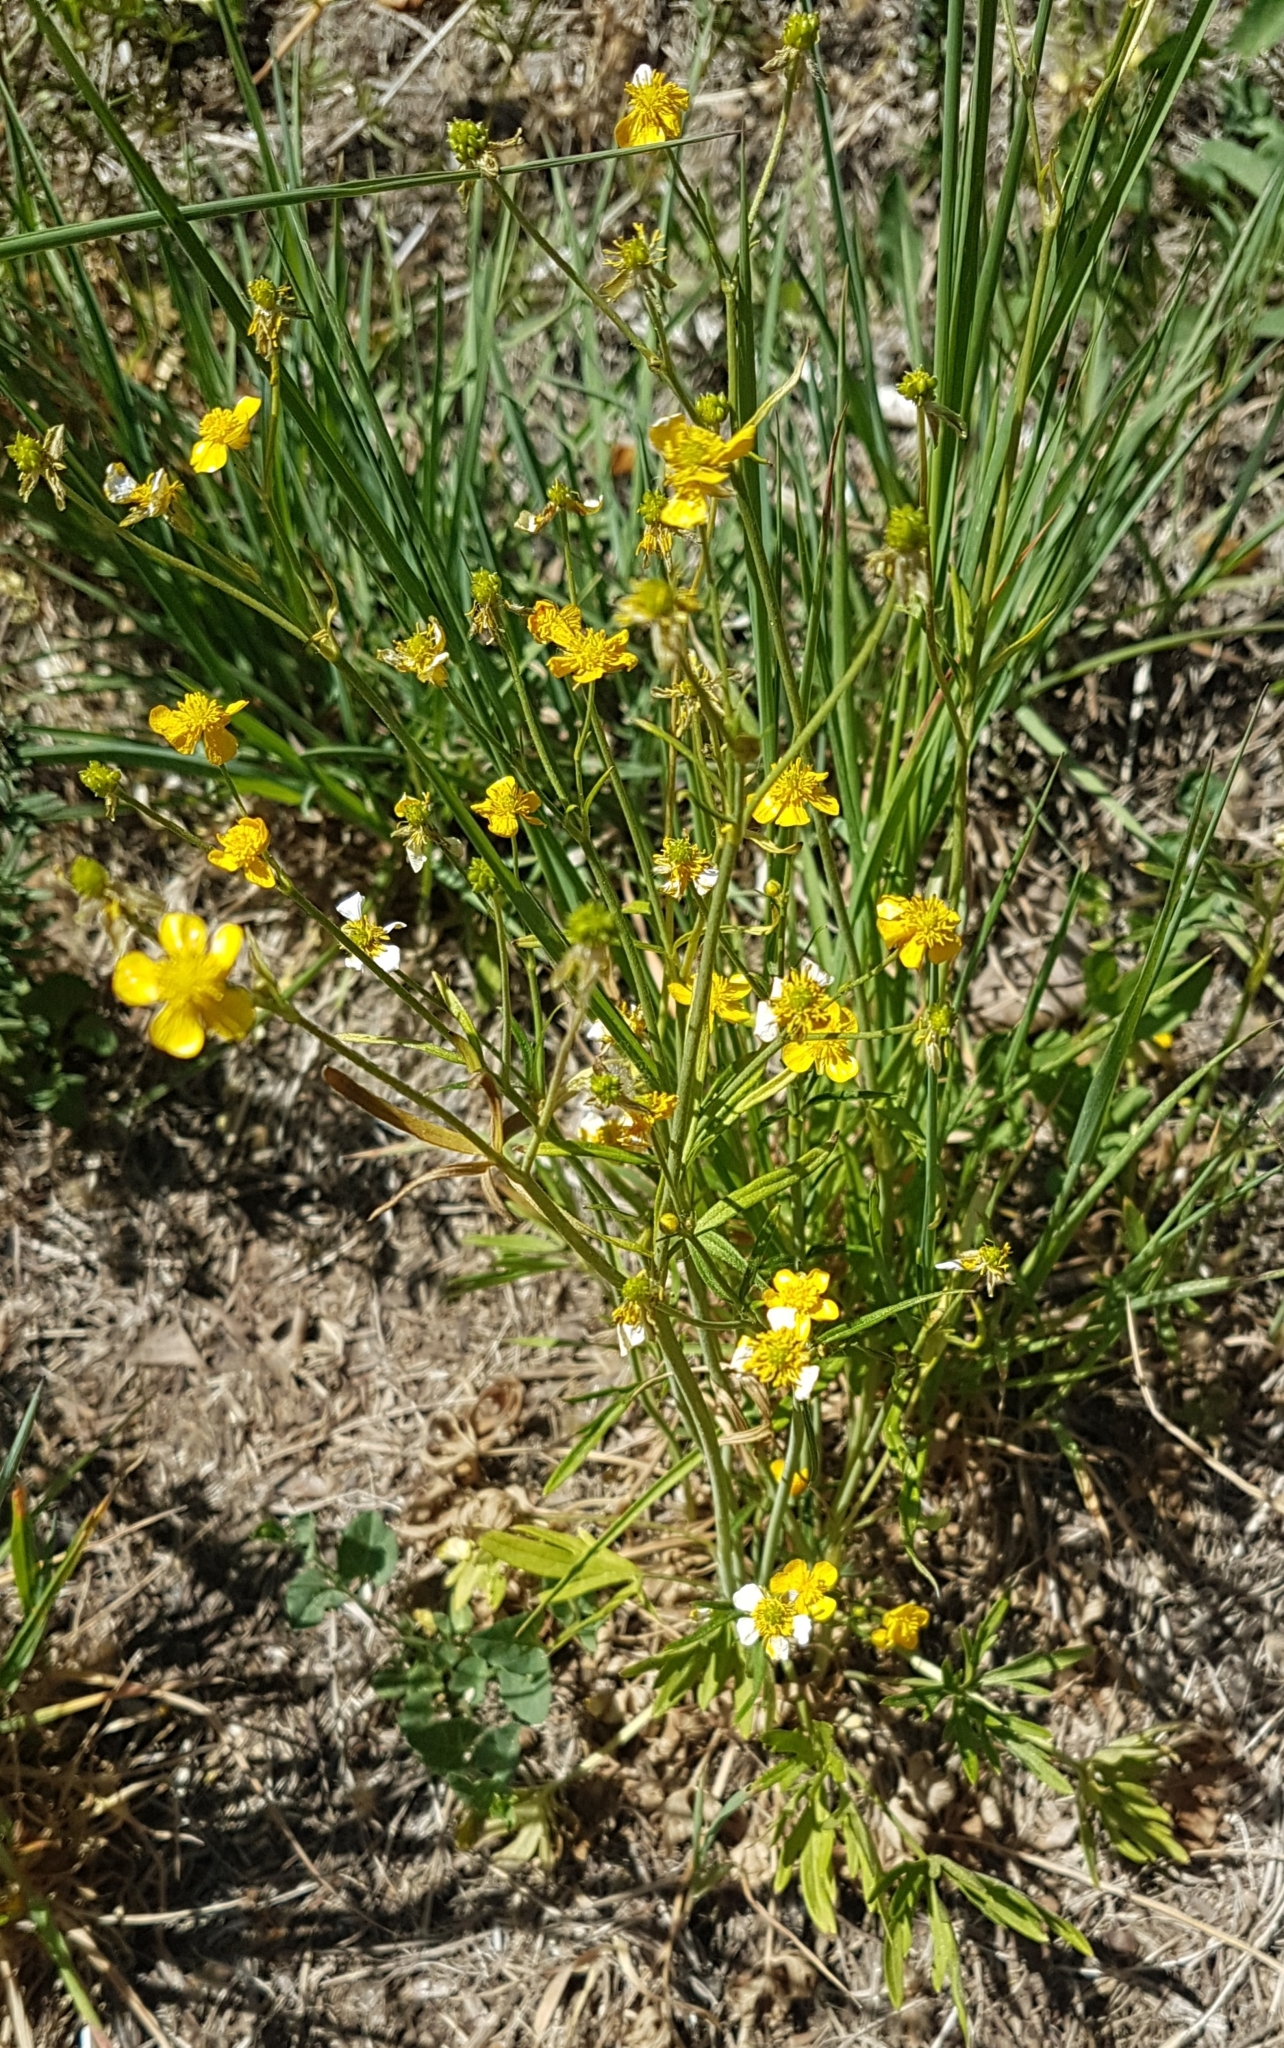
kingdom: Plantae
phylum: Tracheophyta
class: Magnoliopsida
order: Ranunculales
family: Ranunculaceae
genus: Ranunculus
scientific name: Ranunculus acris
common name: Meadow buttercup
